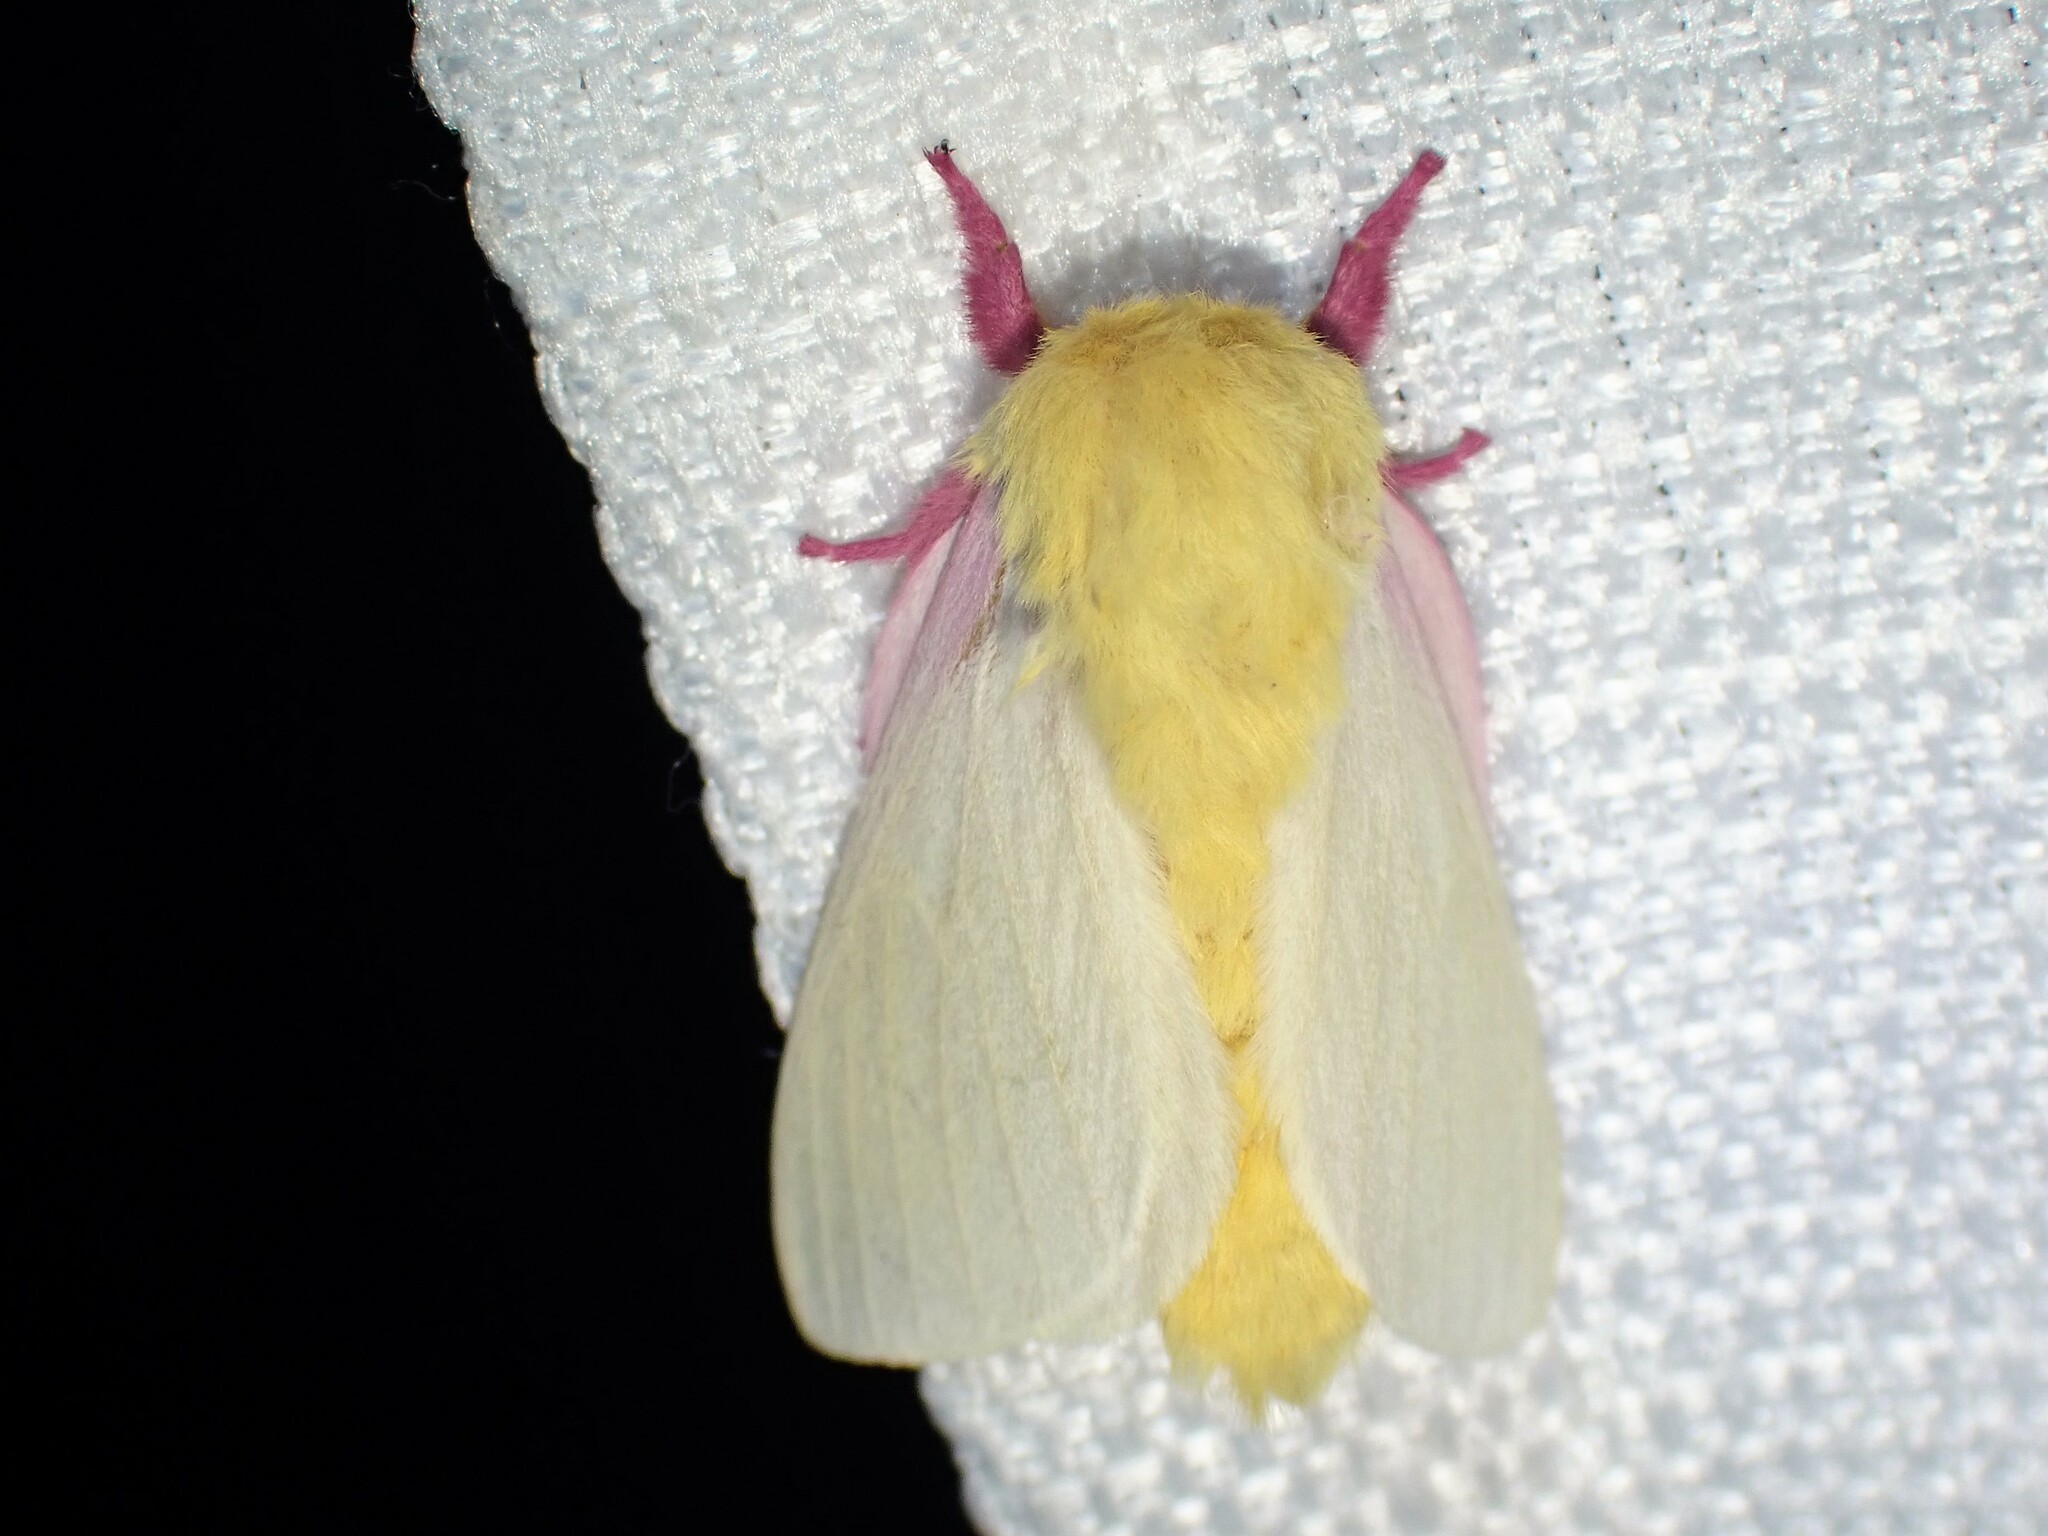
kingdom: Animalia
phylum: Arthropoda
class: Insecta
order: Lepidoptera
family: Saturniidae
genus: Dryocampa
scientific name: Dryocampa rubicunda
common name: Rosy maple moth
